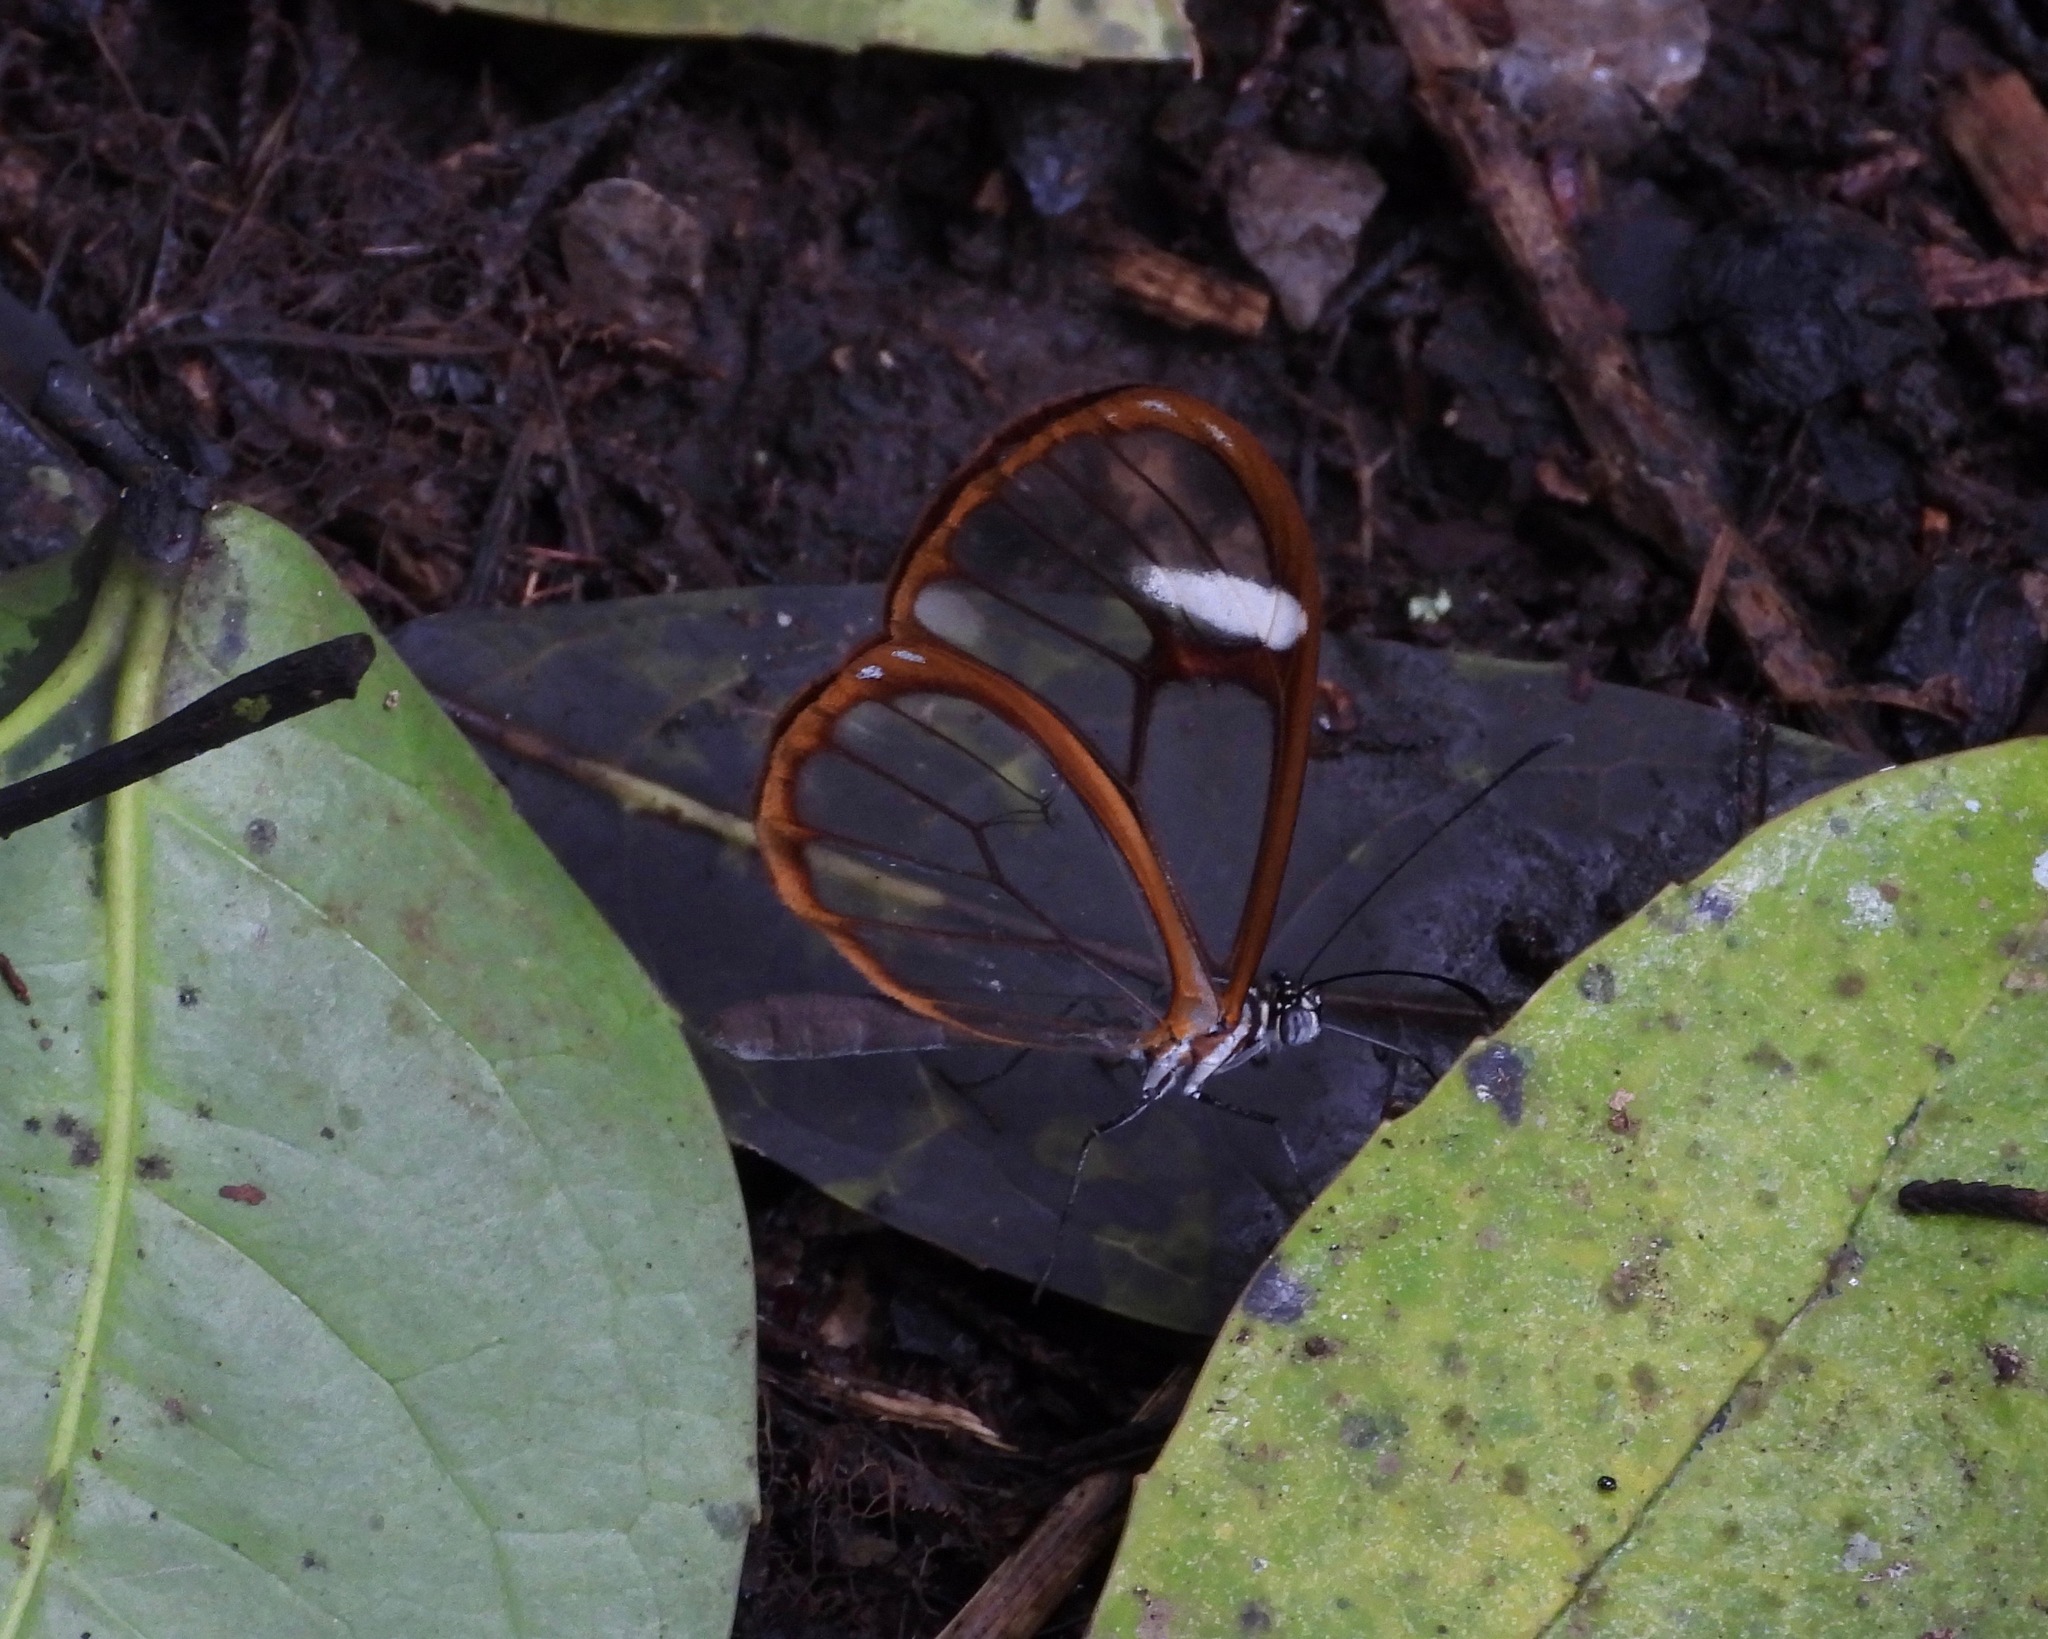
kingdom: Animalia
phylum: Arthropoda
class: Insecta
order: Lepidoptera
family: Nymphalidae
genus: Pteronymia
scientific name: Pteronymia simplex
